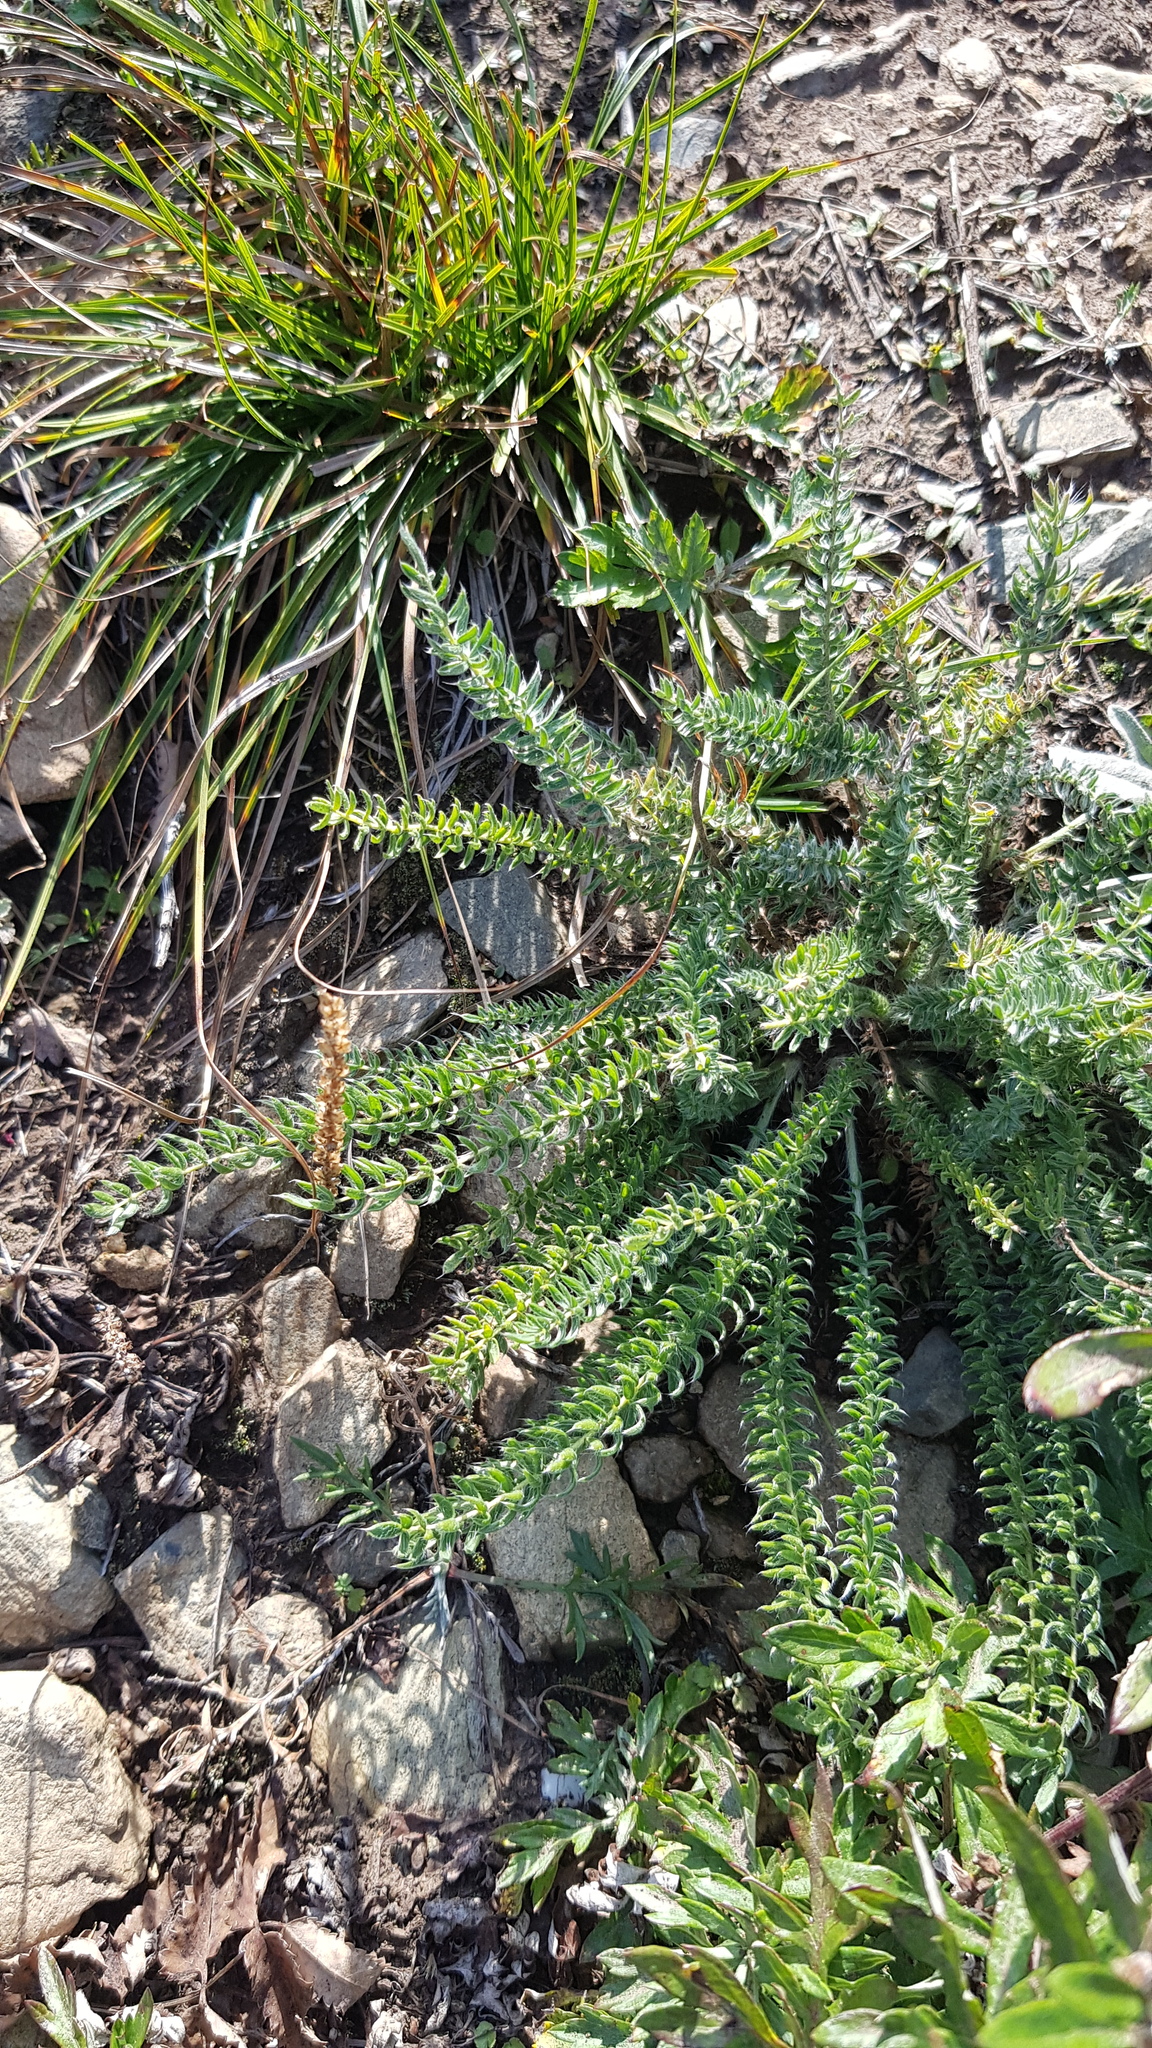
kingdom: Plantae
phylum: Tracheophyta
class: Magnoliopsida
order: Fabales
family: Fabaceae
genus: Oxytropis
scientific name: Oxytropis myriophylla
